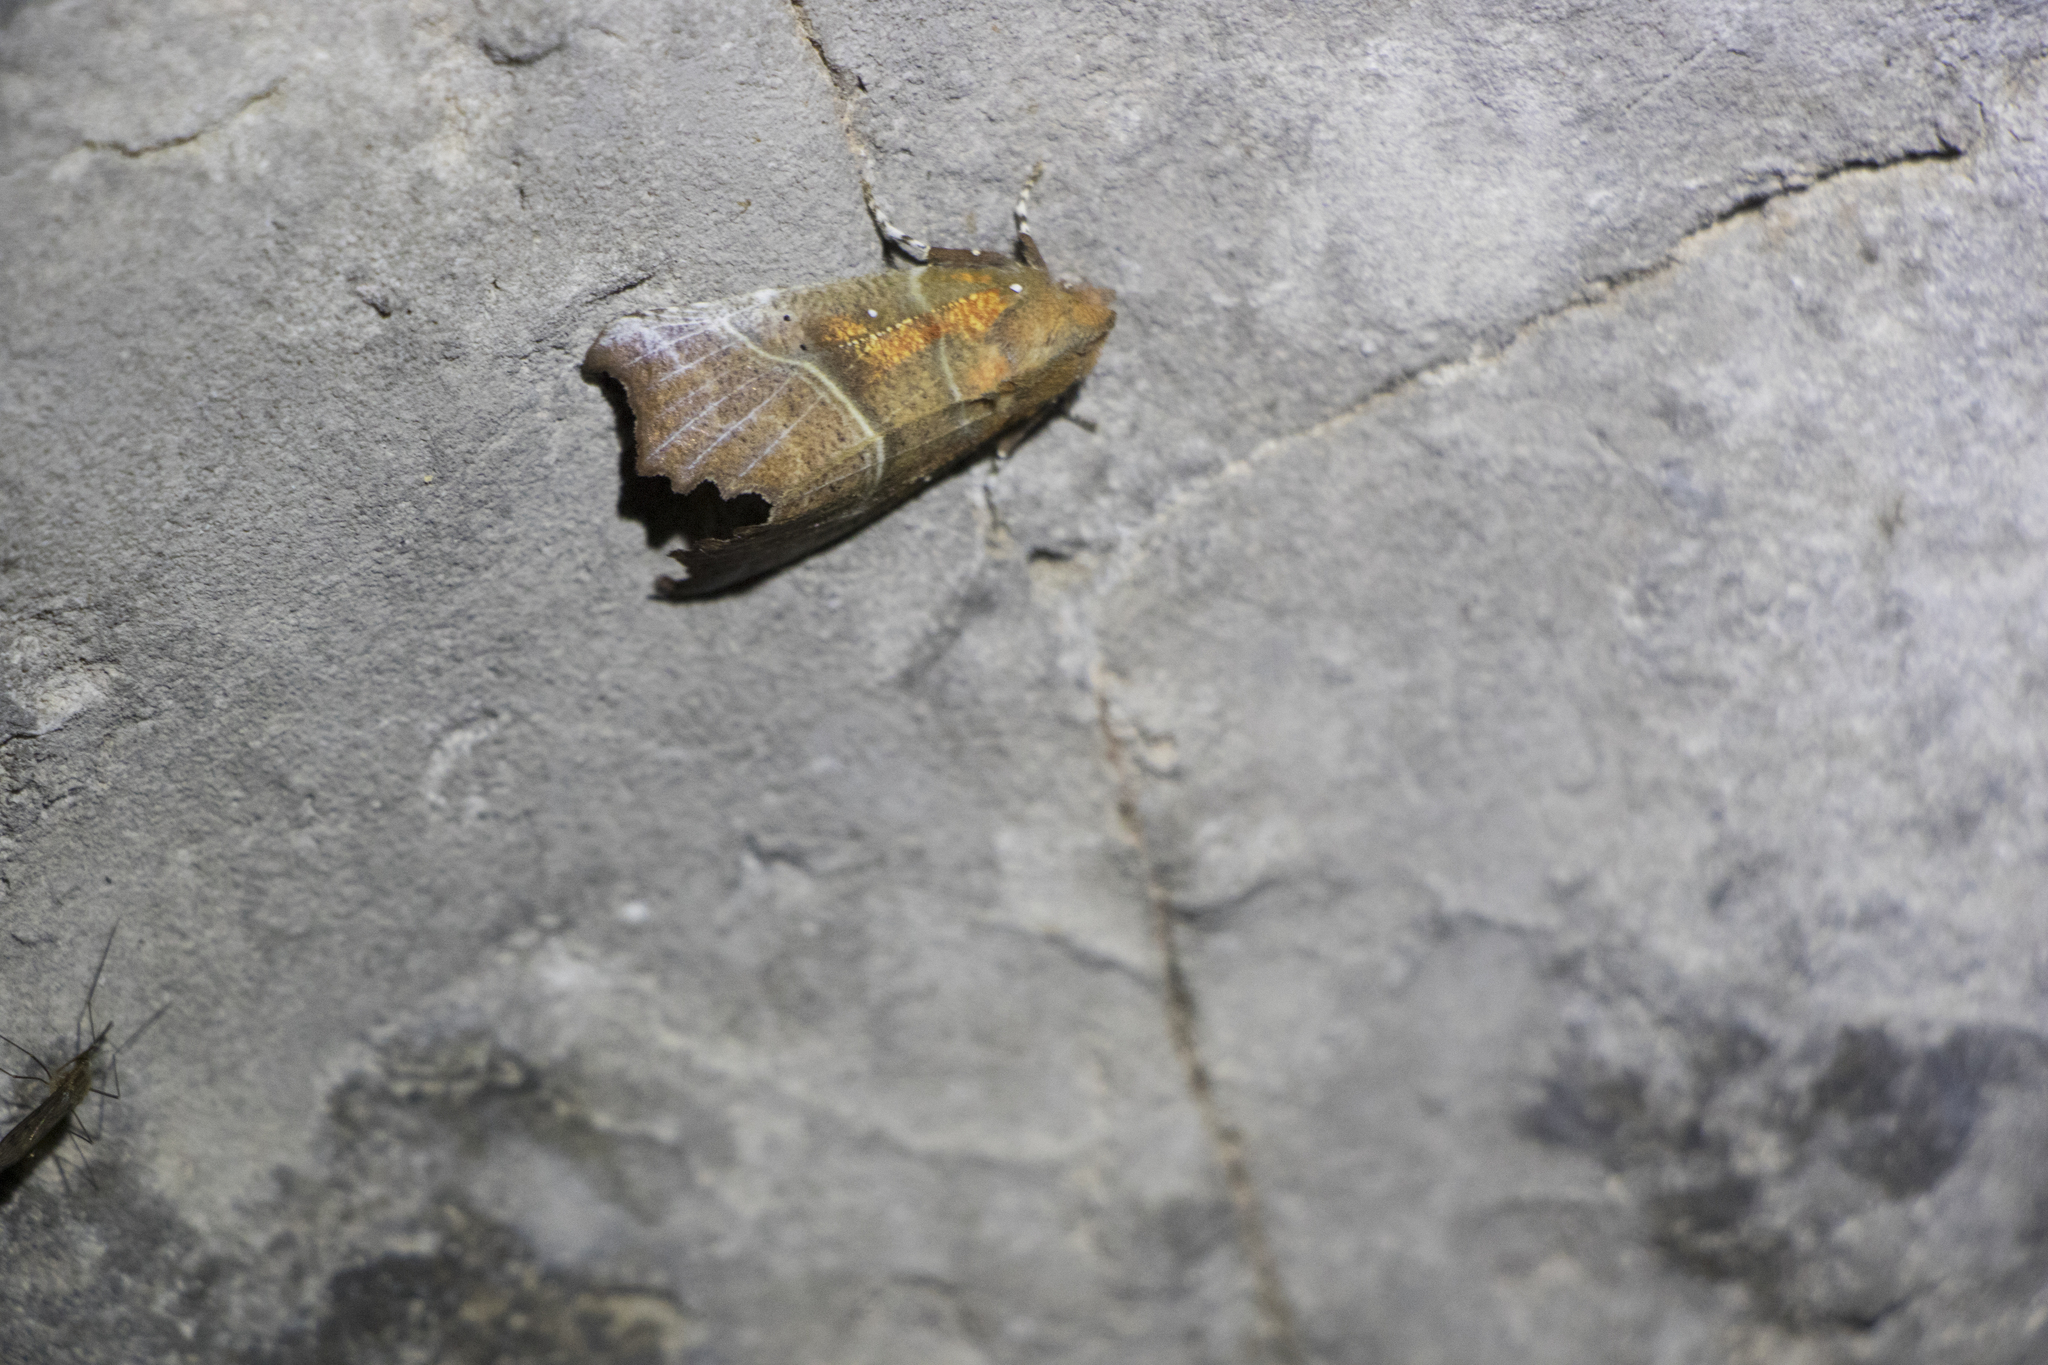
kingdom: Animalia
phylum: Arthropoda
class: Insecta
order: Lepidoptera
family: Erebidae
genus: Scoliopteryx
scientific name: Scoliopteryx libatrix
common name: Herald
